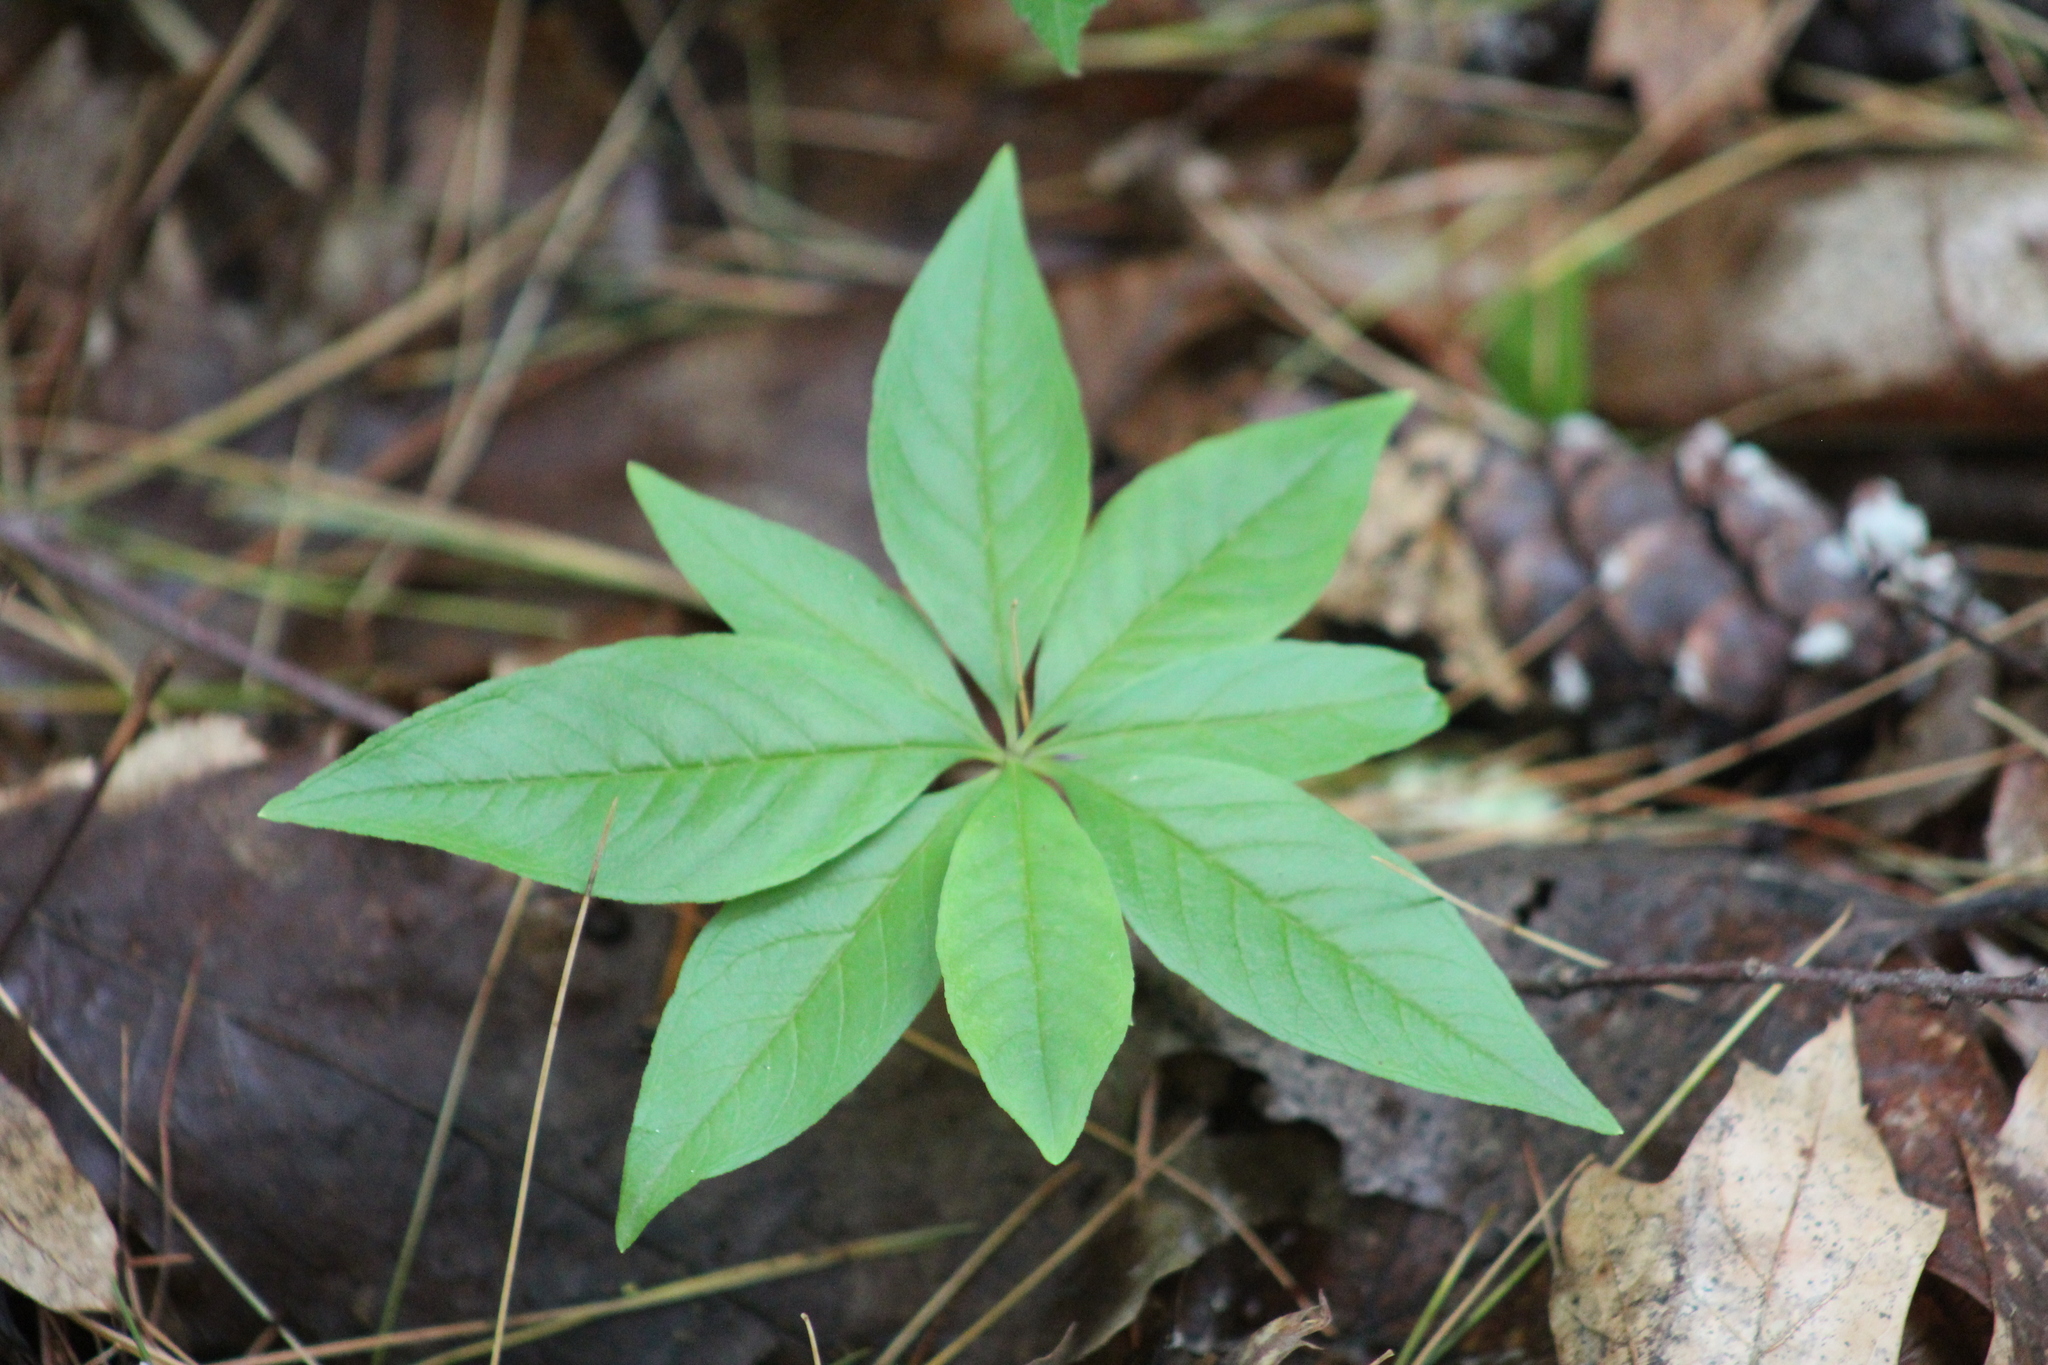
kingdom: Plantae
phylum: Tracheophyta
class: Magnoliopsida
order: Ericales
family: Primulaceae
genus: Lysimachia
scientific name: Lysimachia borealis
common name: American starflower
